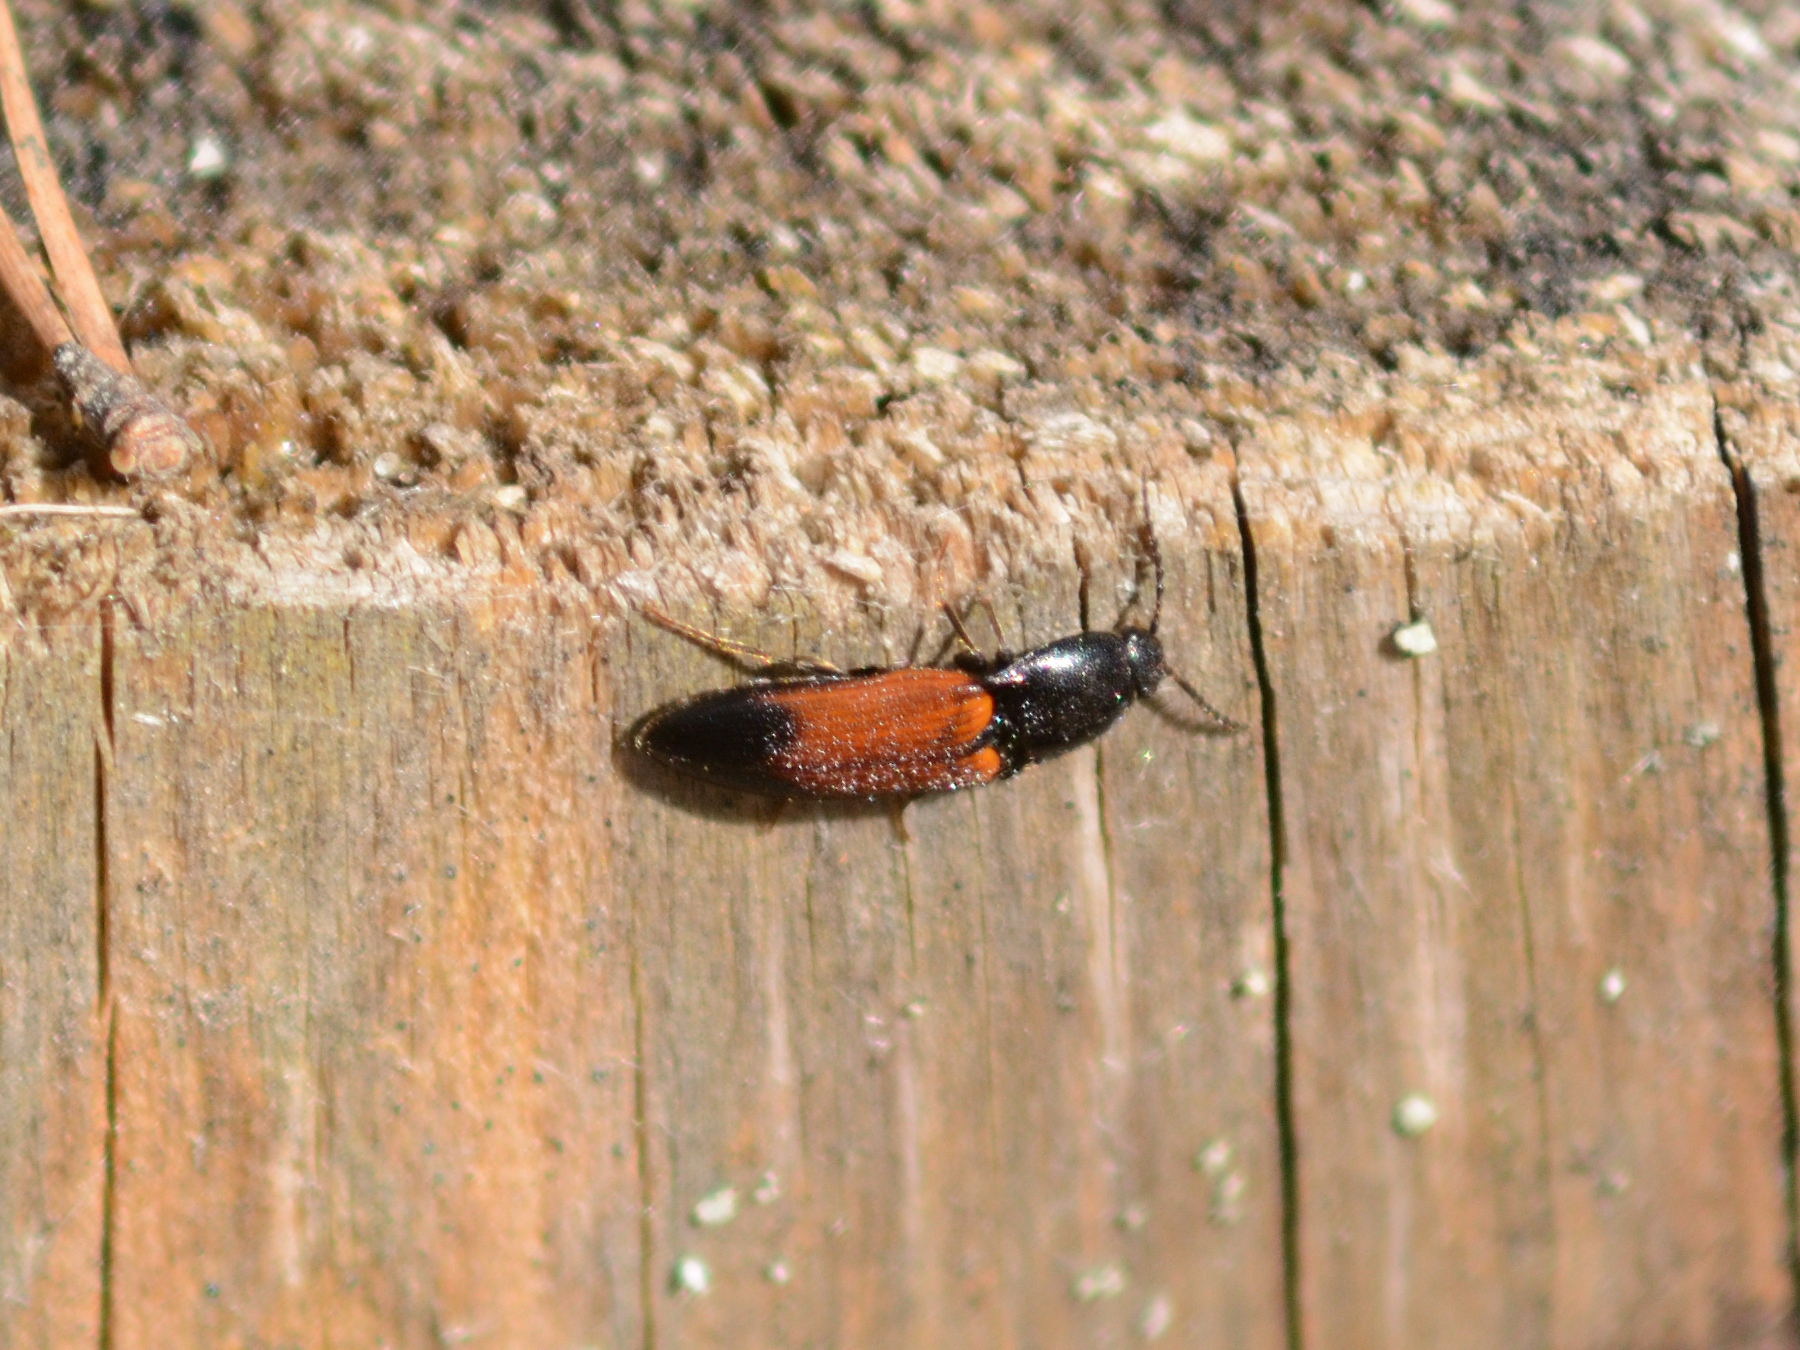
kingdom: Animalia
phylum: Arthropoda
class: Insecta
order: Coleoptera
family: Elateridae
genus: Ampedus
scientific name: Ampedus balteatus
